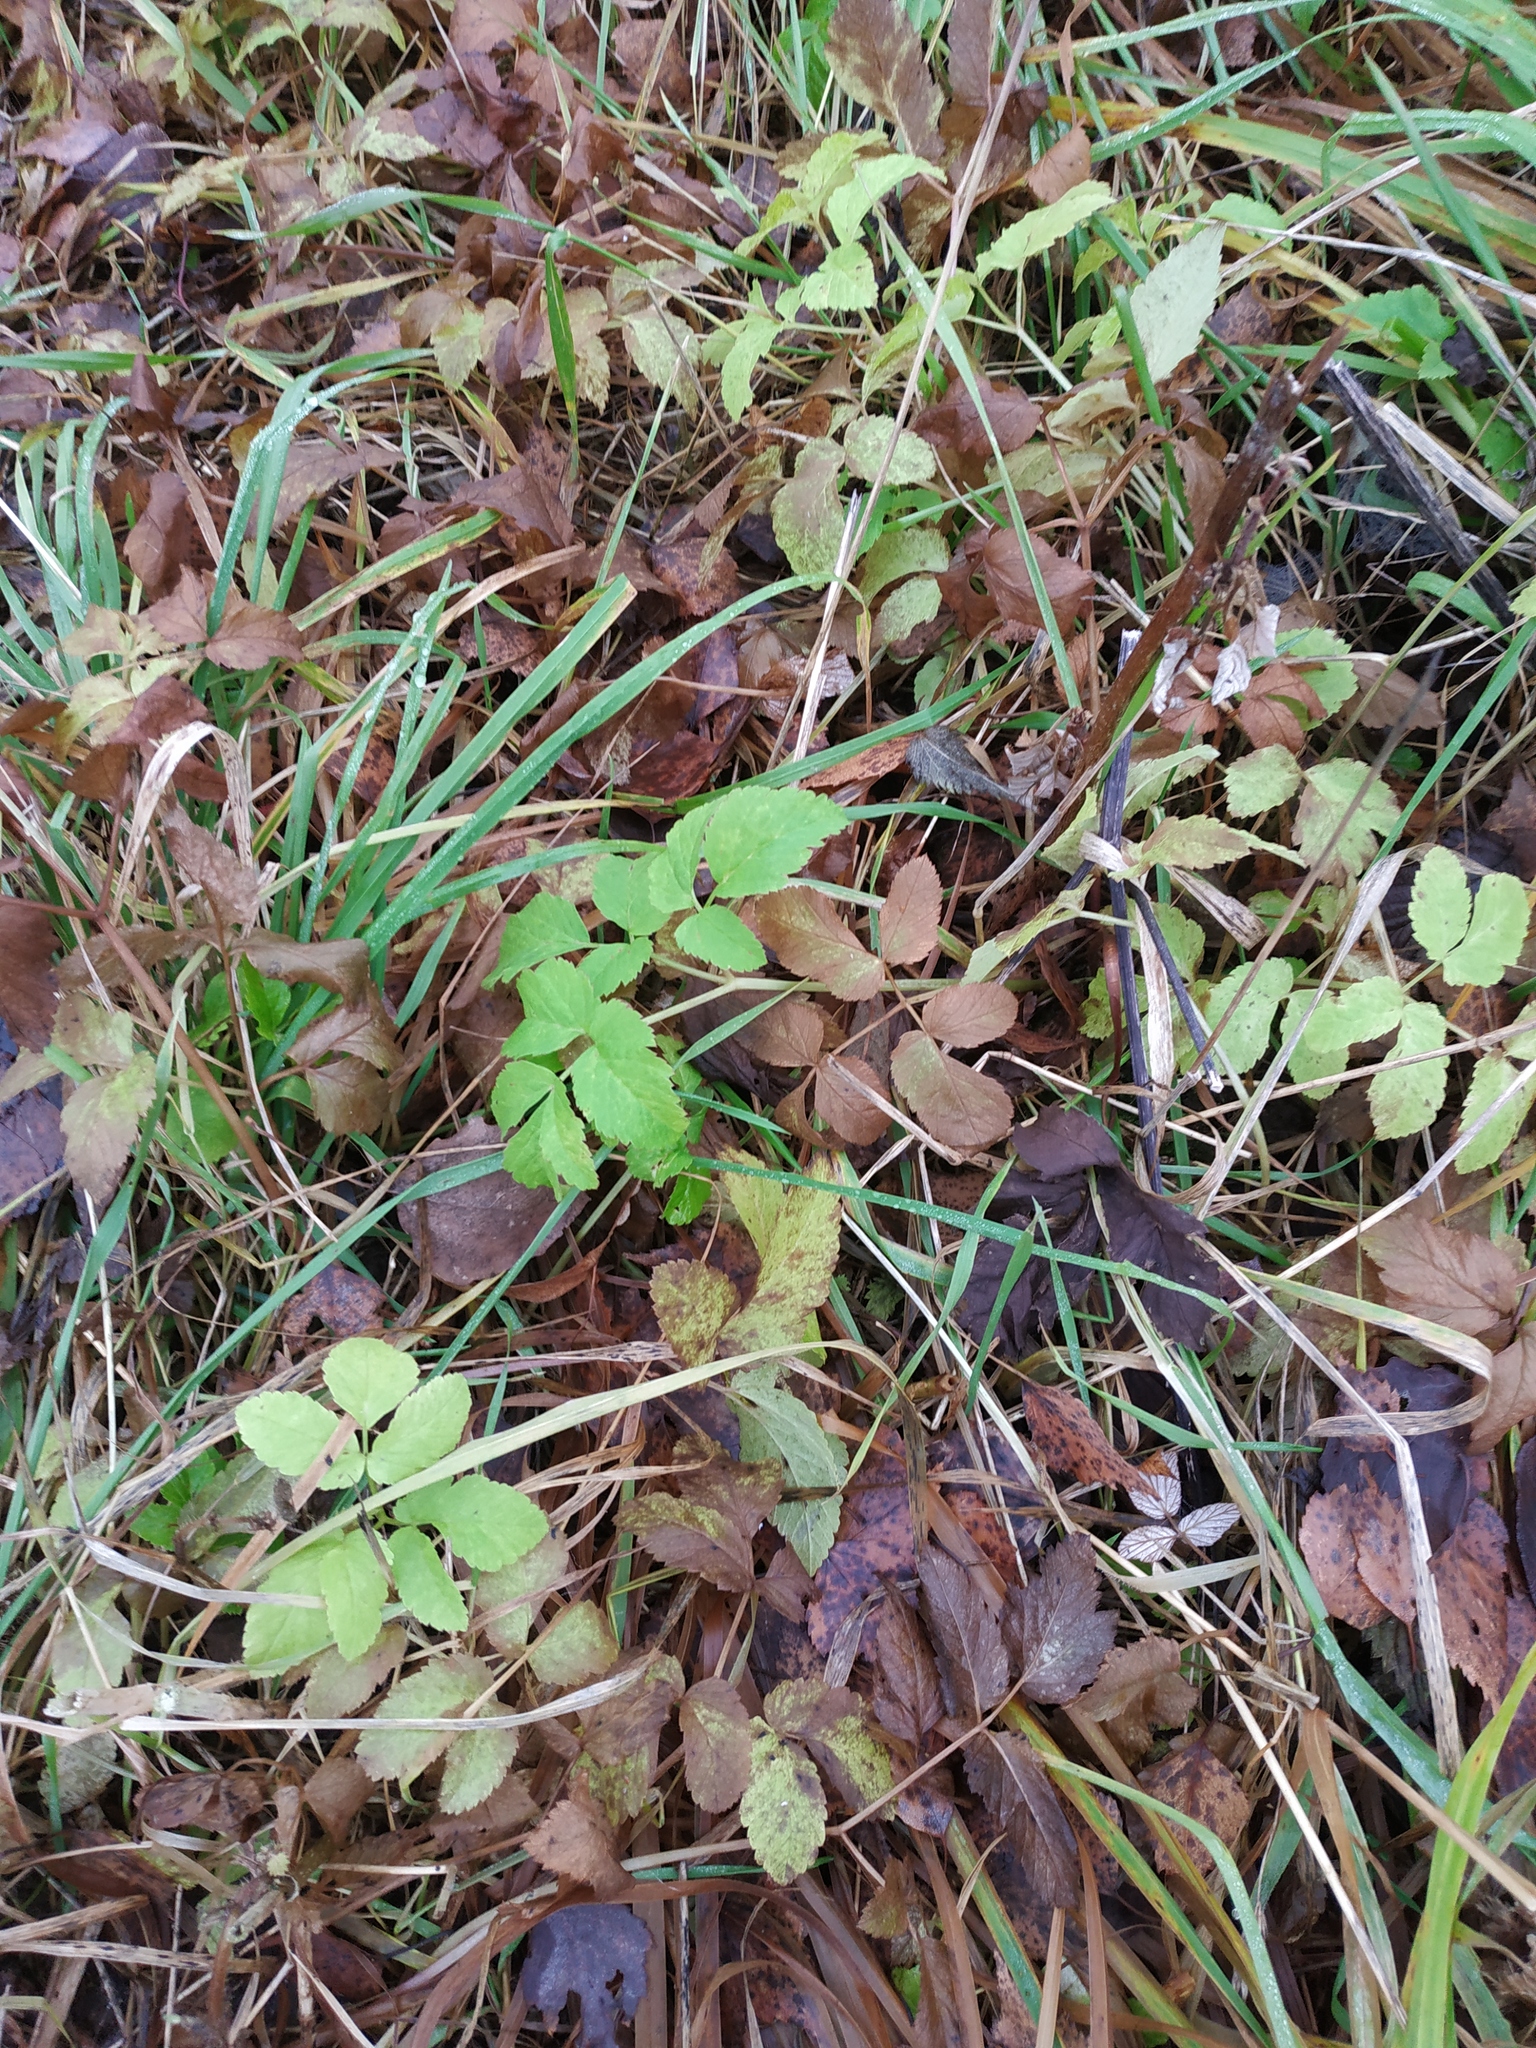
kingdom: Plantae
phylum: Tracheophyta
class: Magnoliopsida
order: Apiales
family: Apiaceae
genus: Aegopodium
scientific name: Aegopodium podagraria
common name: Ground-elder
